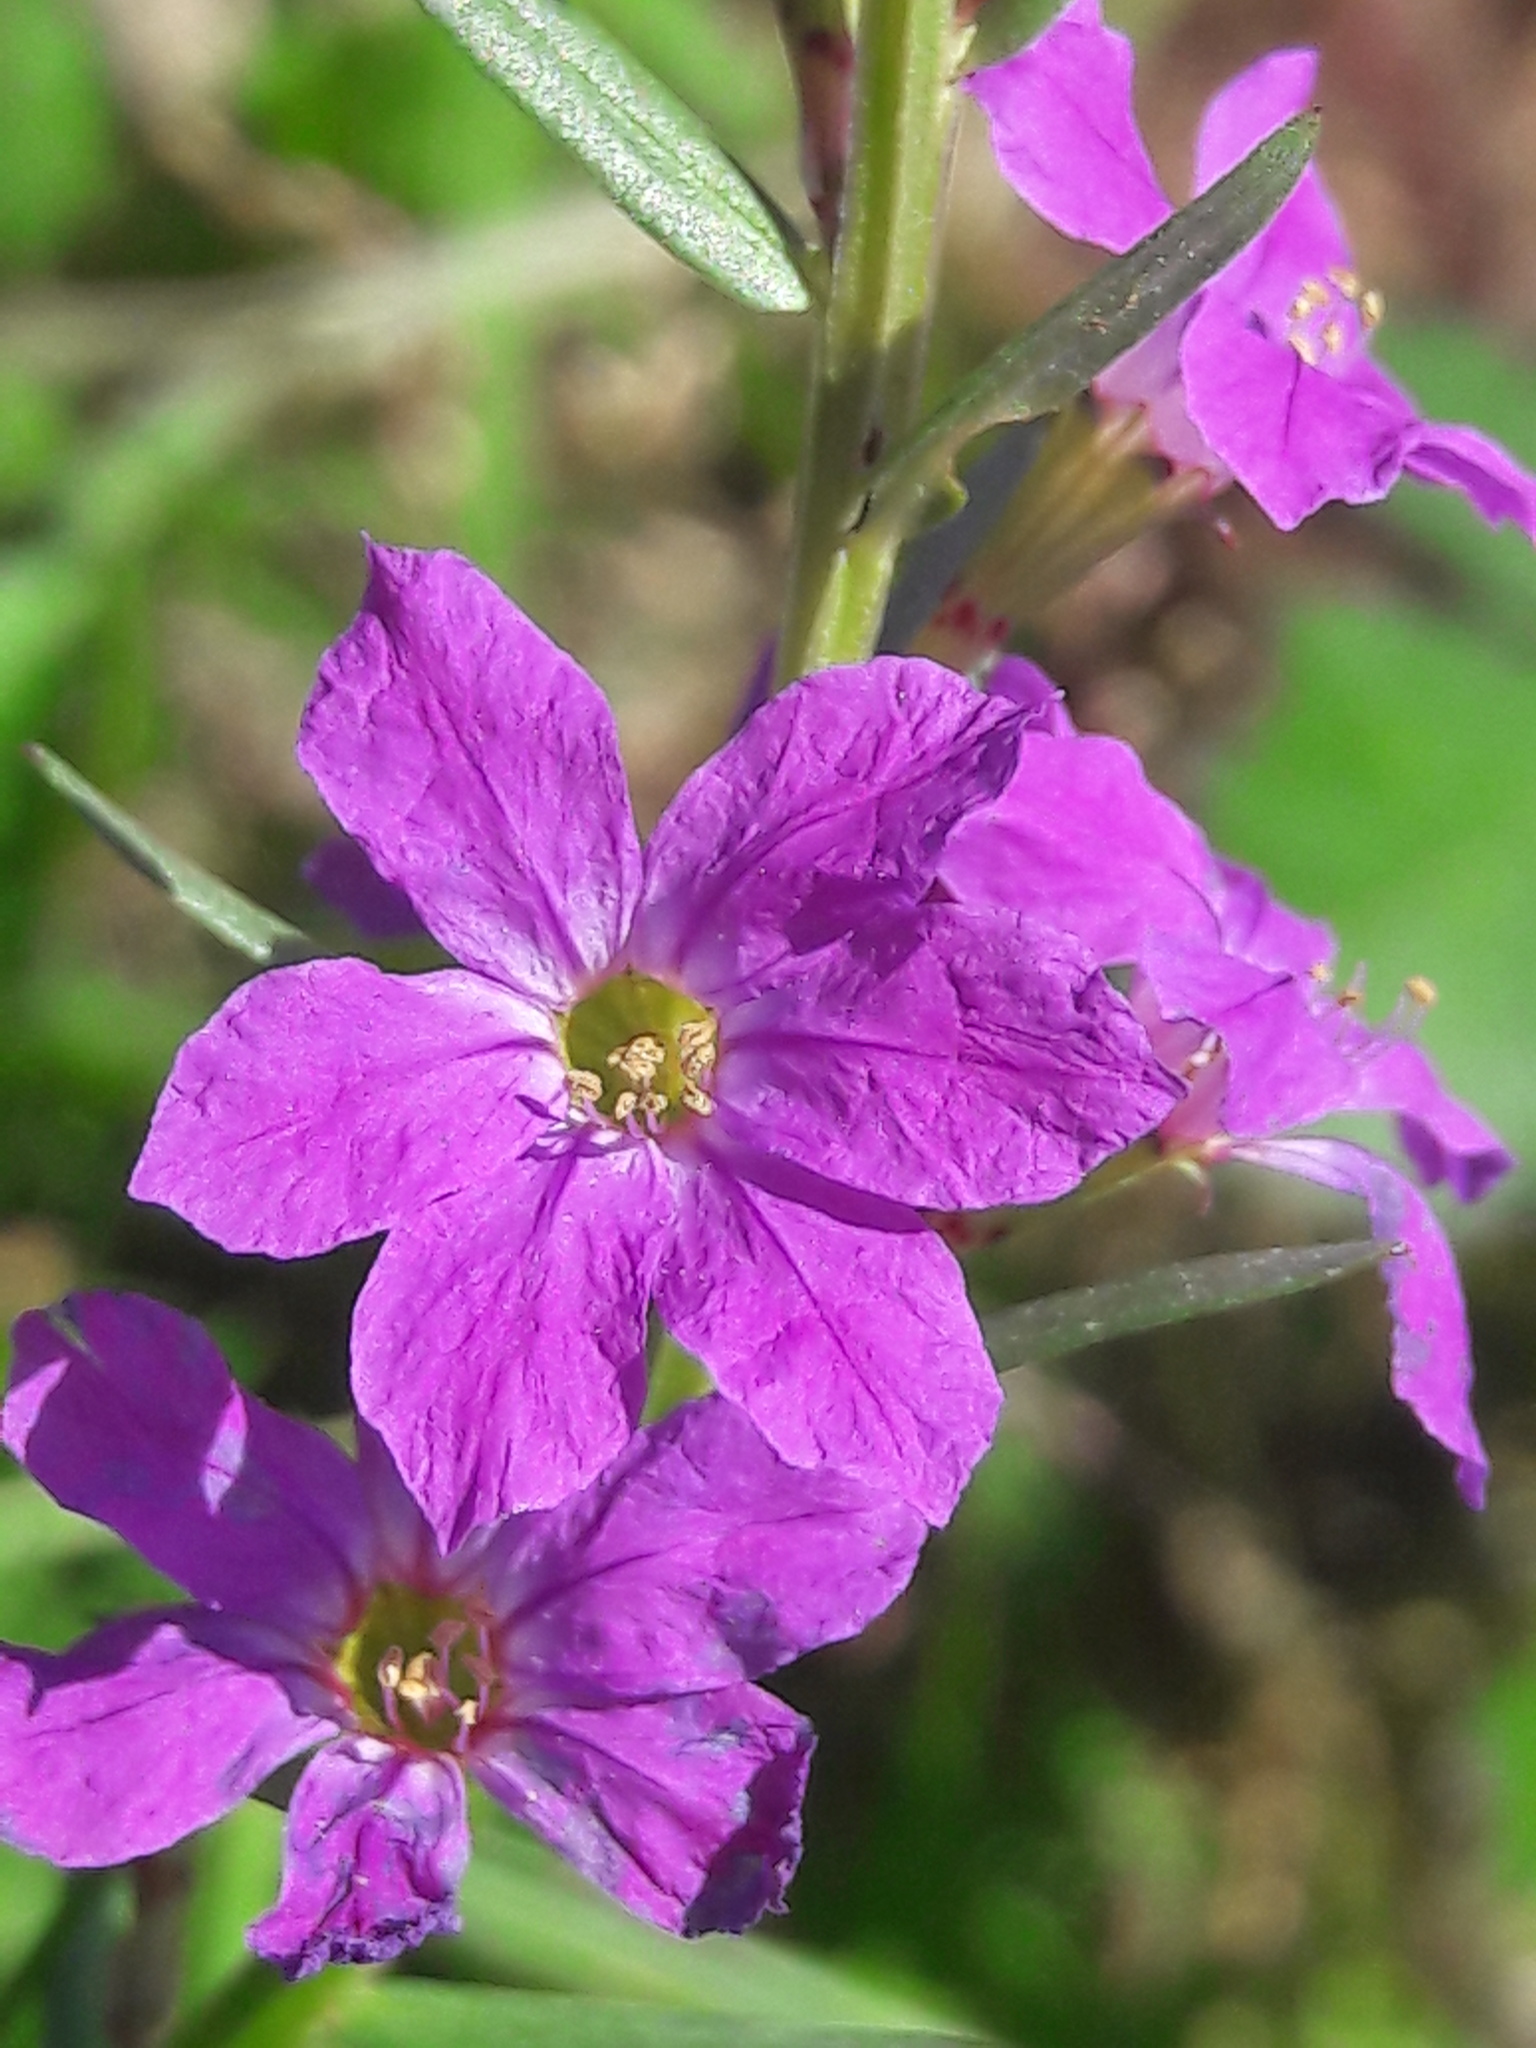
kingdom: Plantae
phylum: Tracheophyta
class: Magnoliopsida
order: Myrtales
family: Lythraceae
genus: Lythrum
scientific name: Lythrum junceum
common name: False grass-poly
